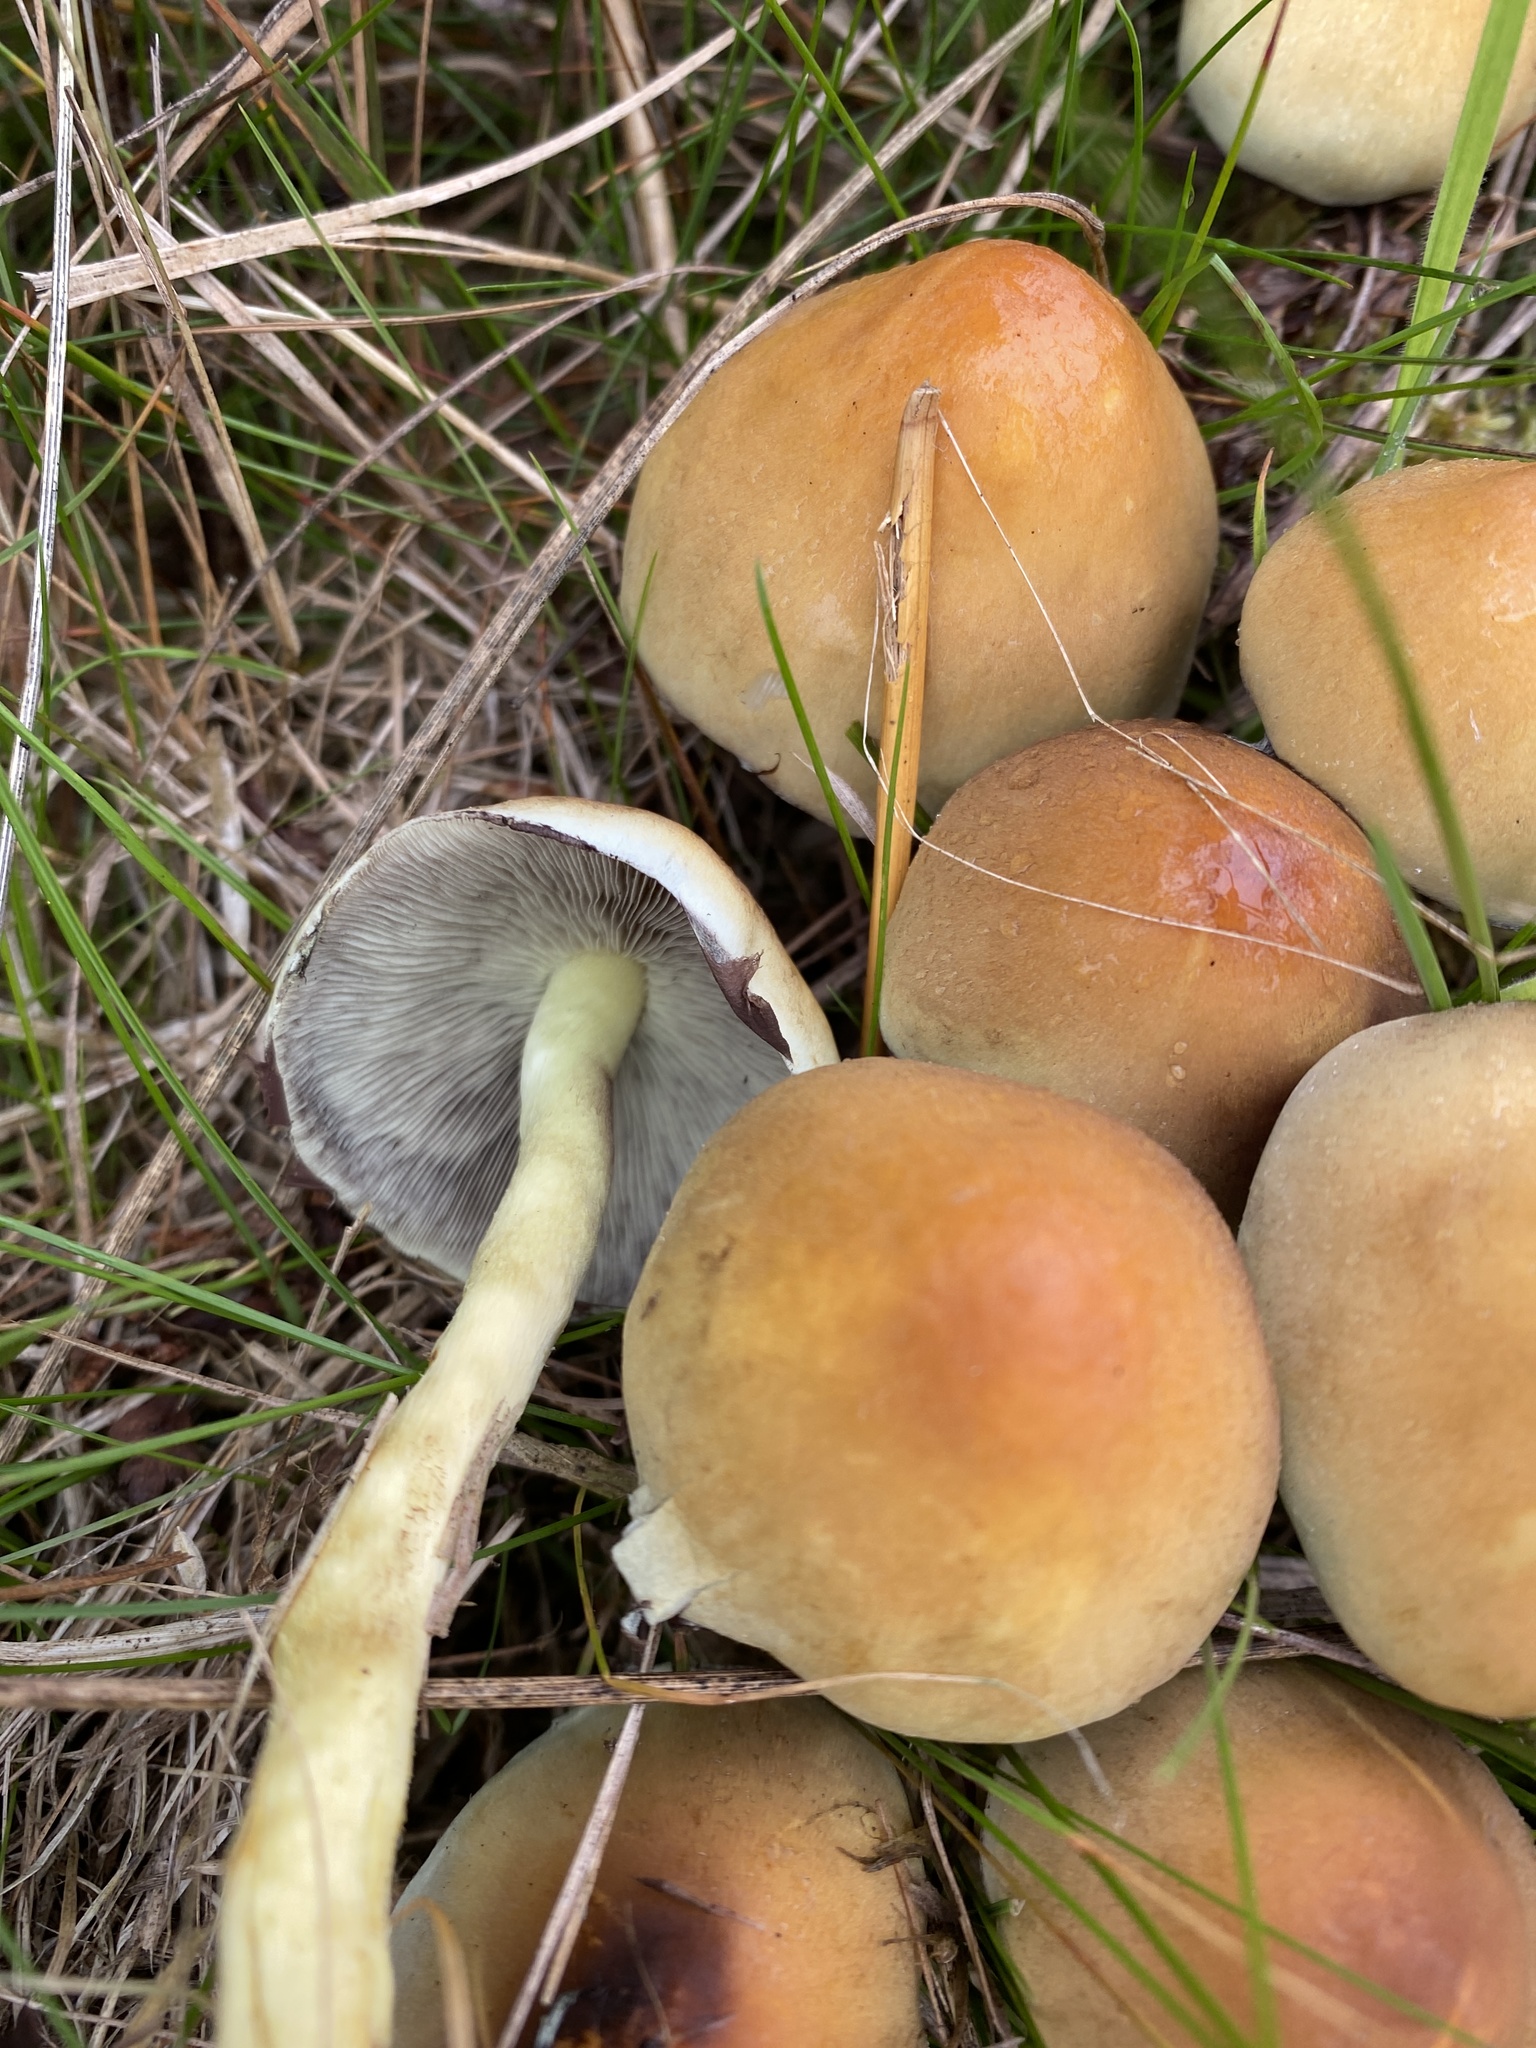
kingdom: Fungi
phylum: Basidiomycota
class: Agaricomycetes
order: Agaricales
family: Strophariaceae
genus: Hypholoma
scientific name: Hypholoma fasciculare
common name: Sulphur tuft
